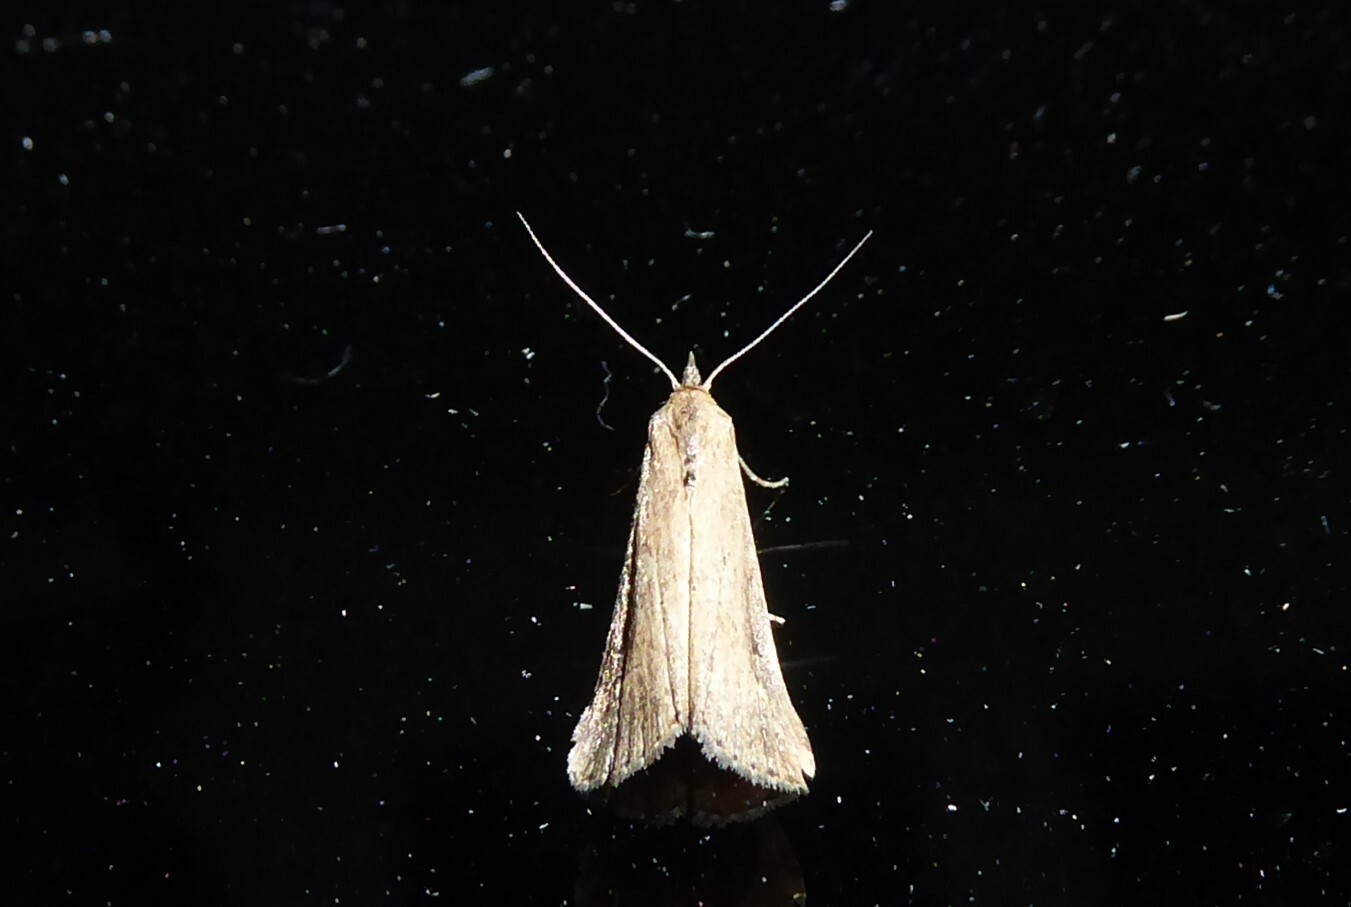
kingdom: Animalia
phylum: Arthropoda
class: Insecta
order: Lepidoptera
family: Erebidae
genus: Schrankia
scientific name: Schrankia costaestrigalis
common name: Pinion-streaked snout
